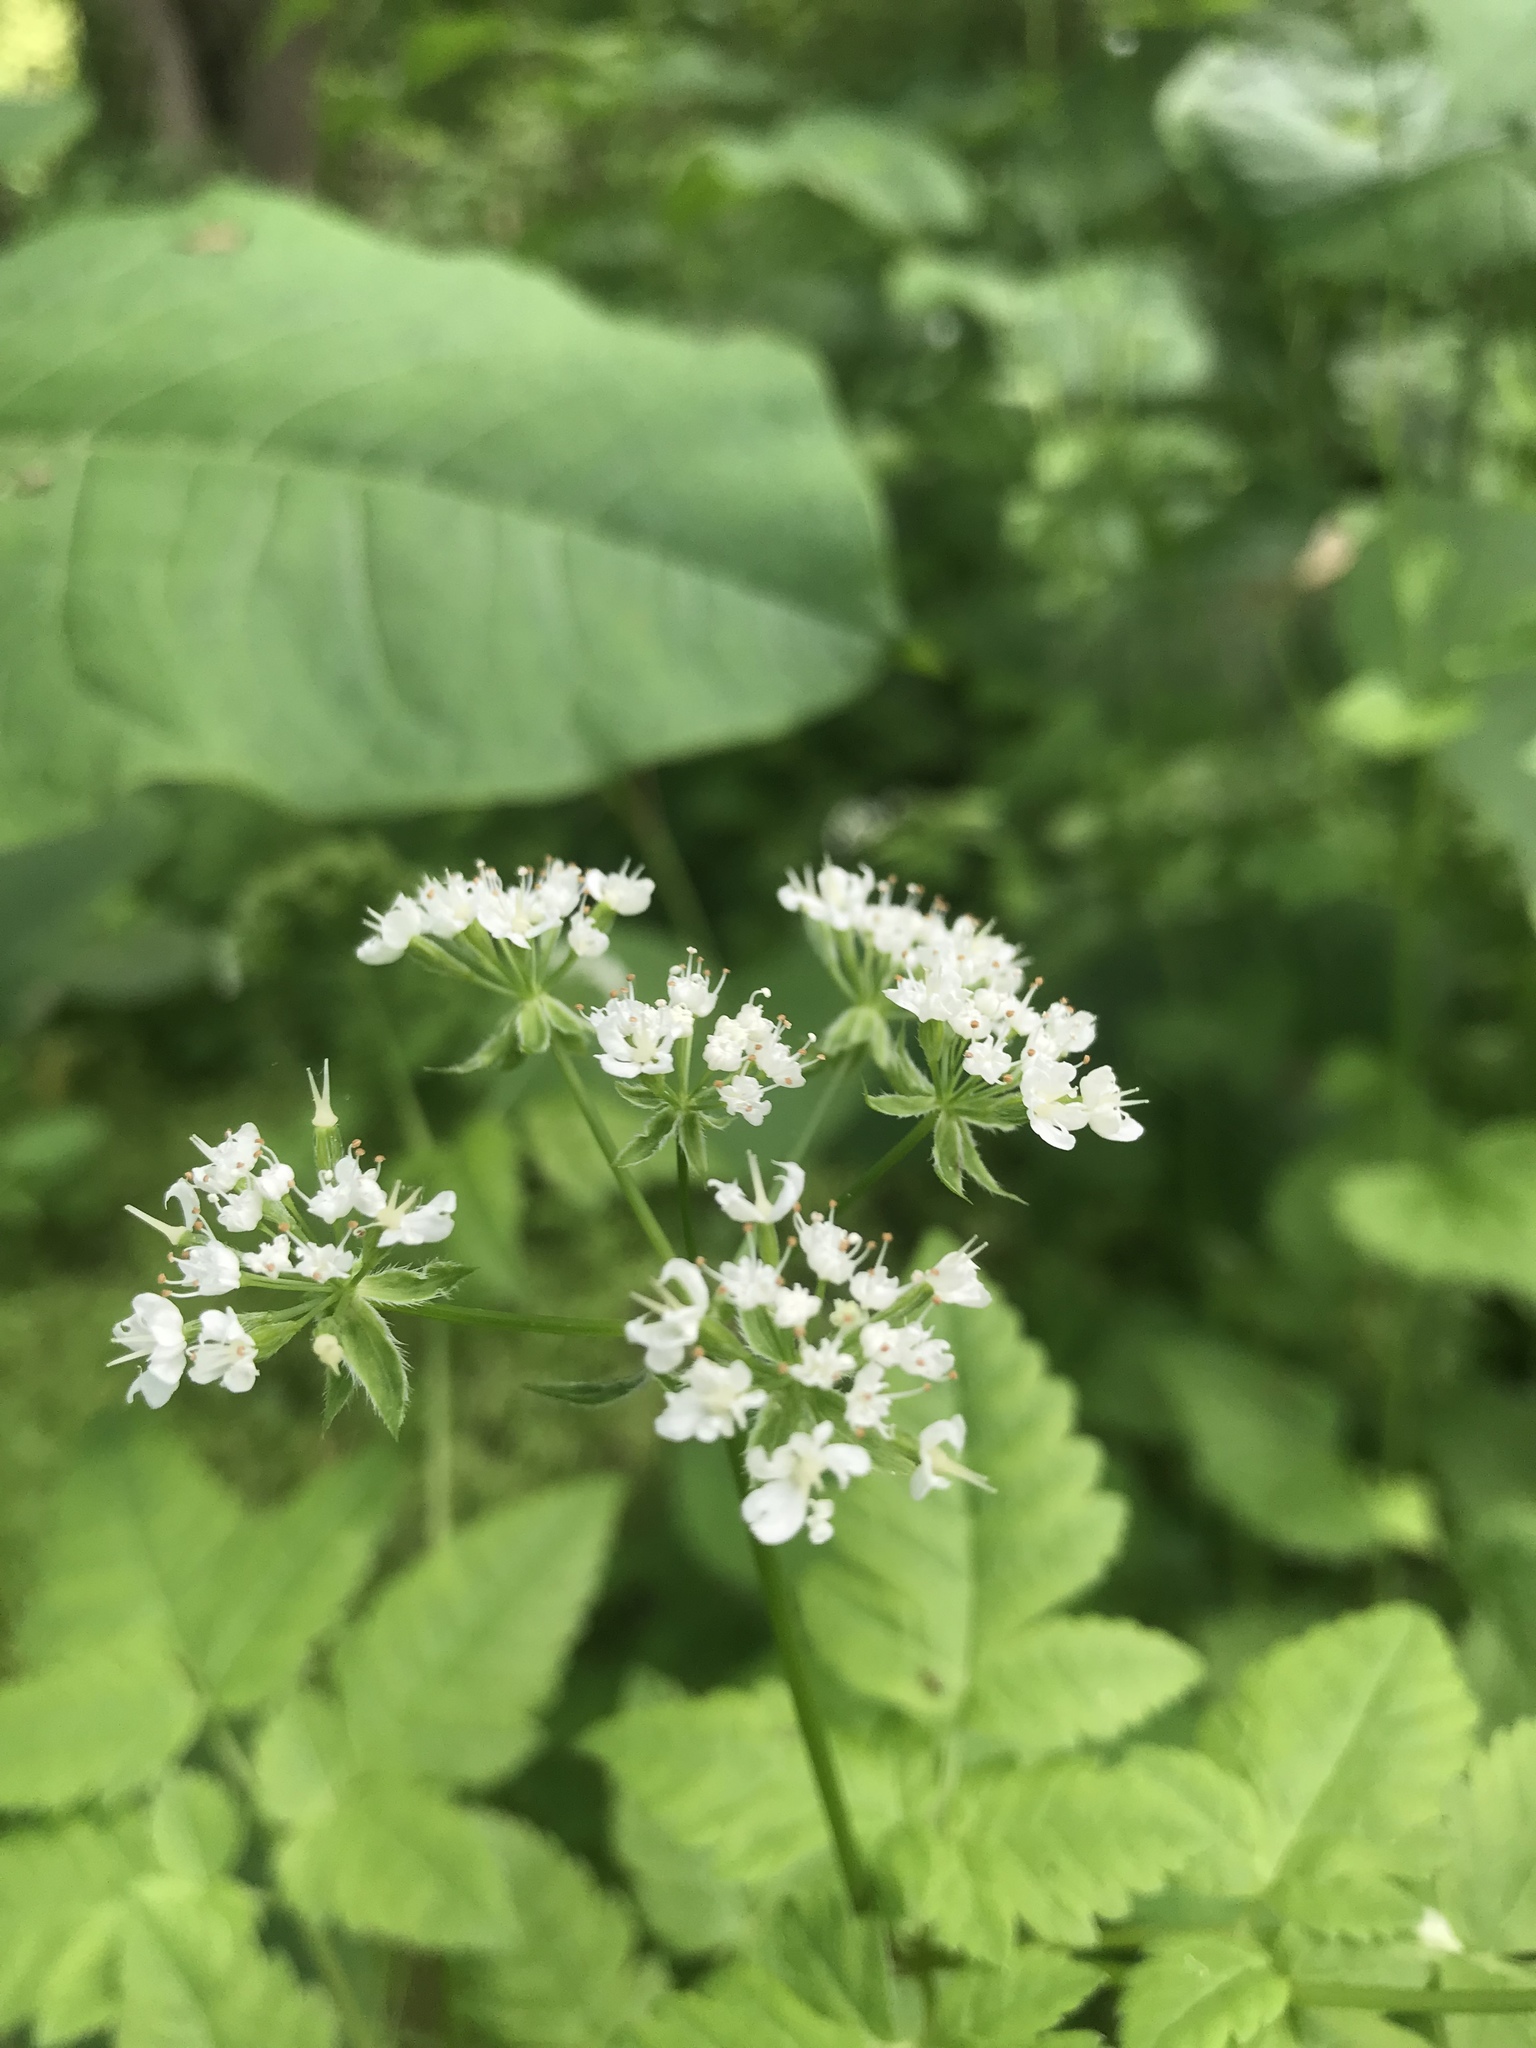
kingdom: Plantae
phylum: Tracheophyta
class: Magnoliopsida
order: Apiales
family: Apiaceae
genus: Osmorhiza
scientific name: Osmorhiza longistylis
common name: Smooth sweet cicely
